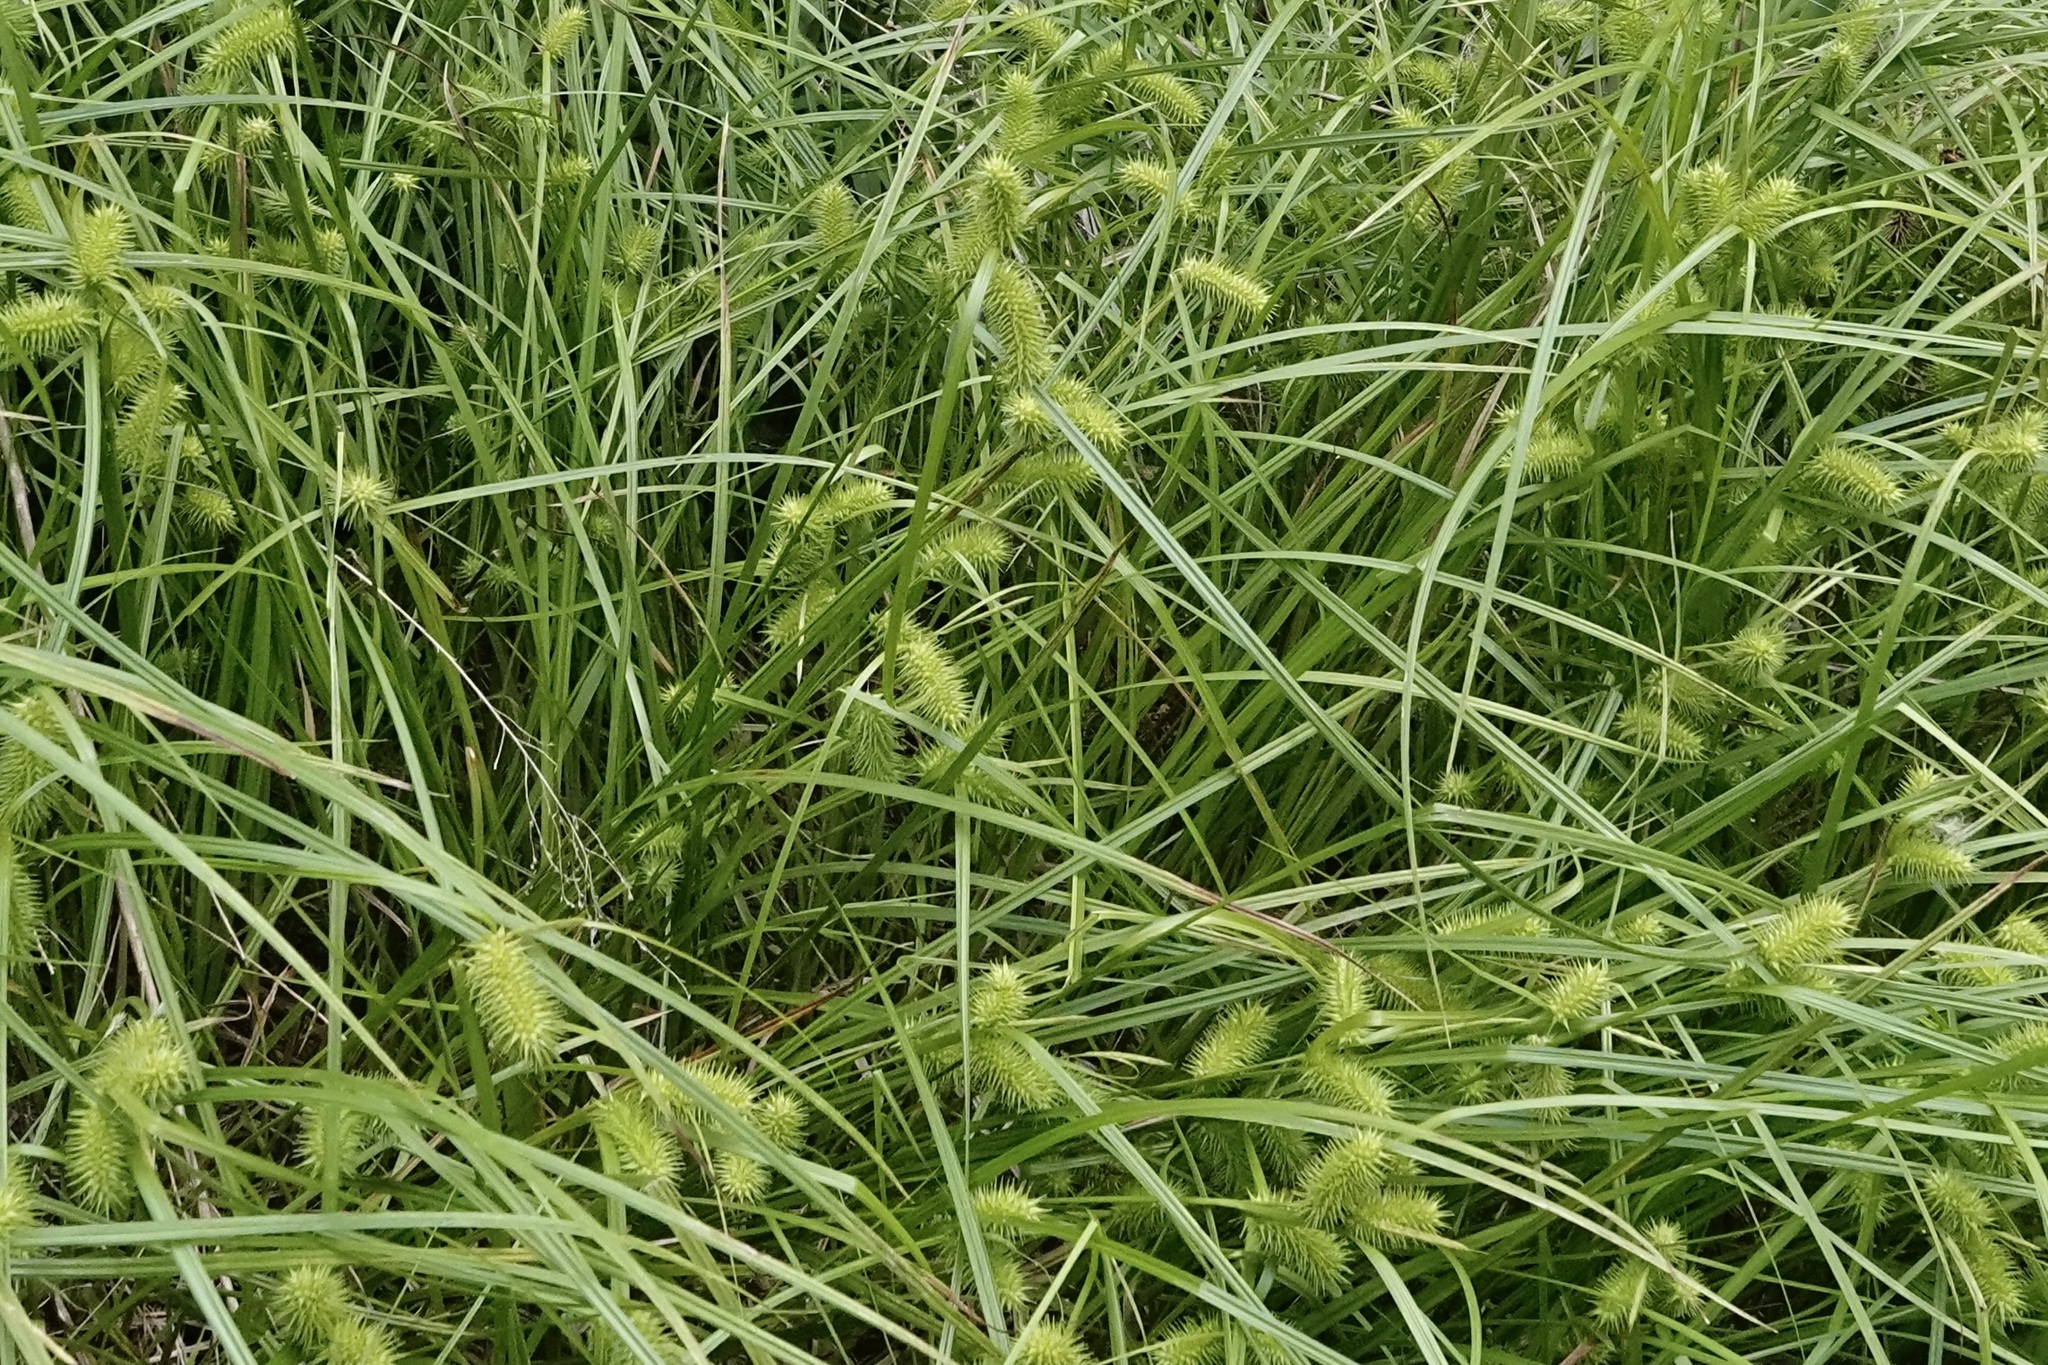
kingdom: Plantae
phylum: Tracheophyta
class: Liliopsida
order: Poales
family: Cyperaceae
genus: Carex
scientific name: Carex lurida
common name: Sallow sedge
